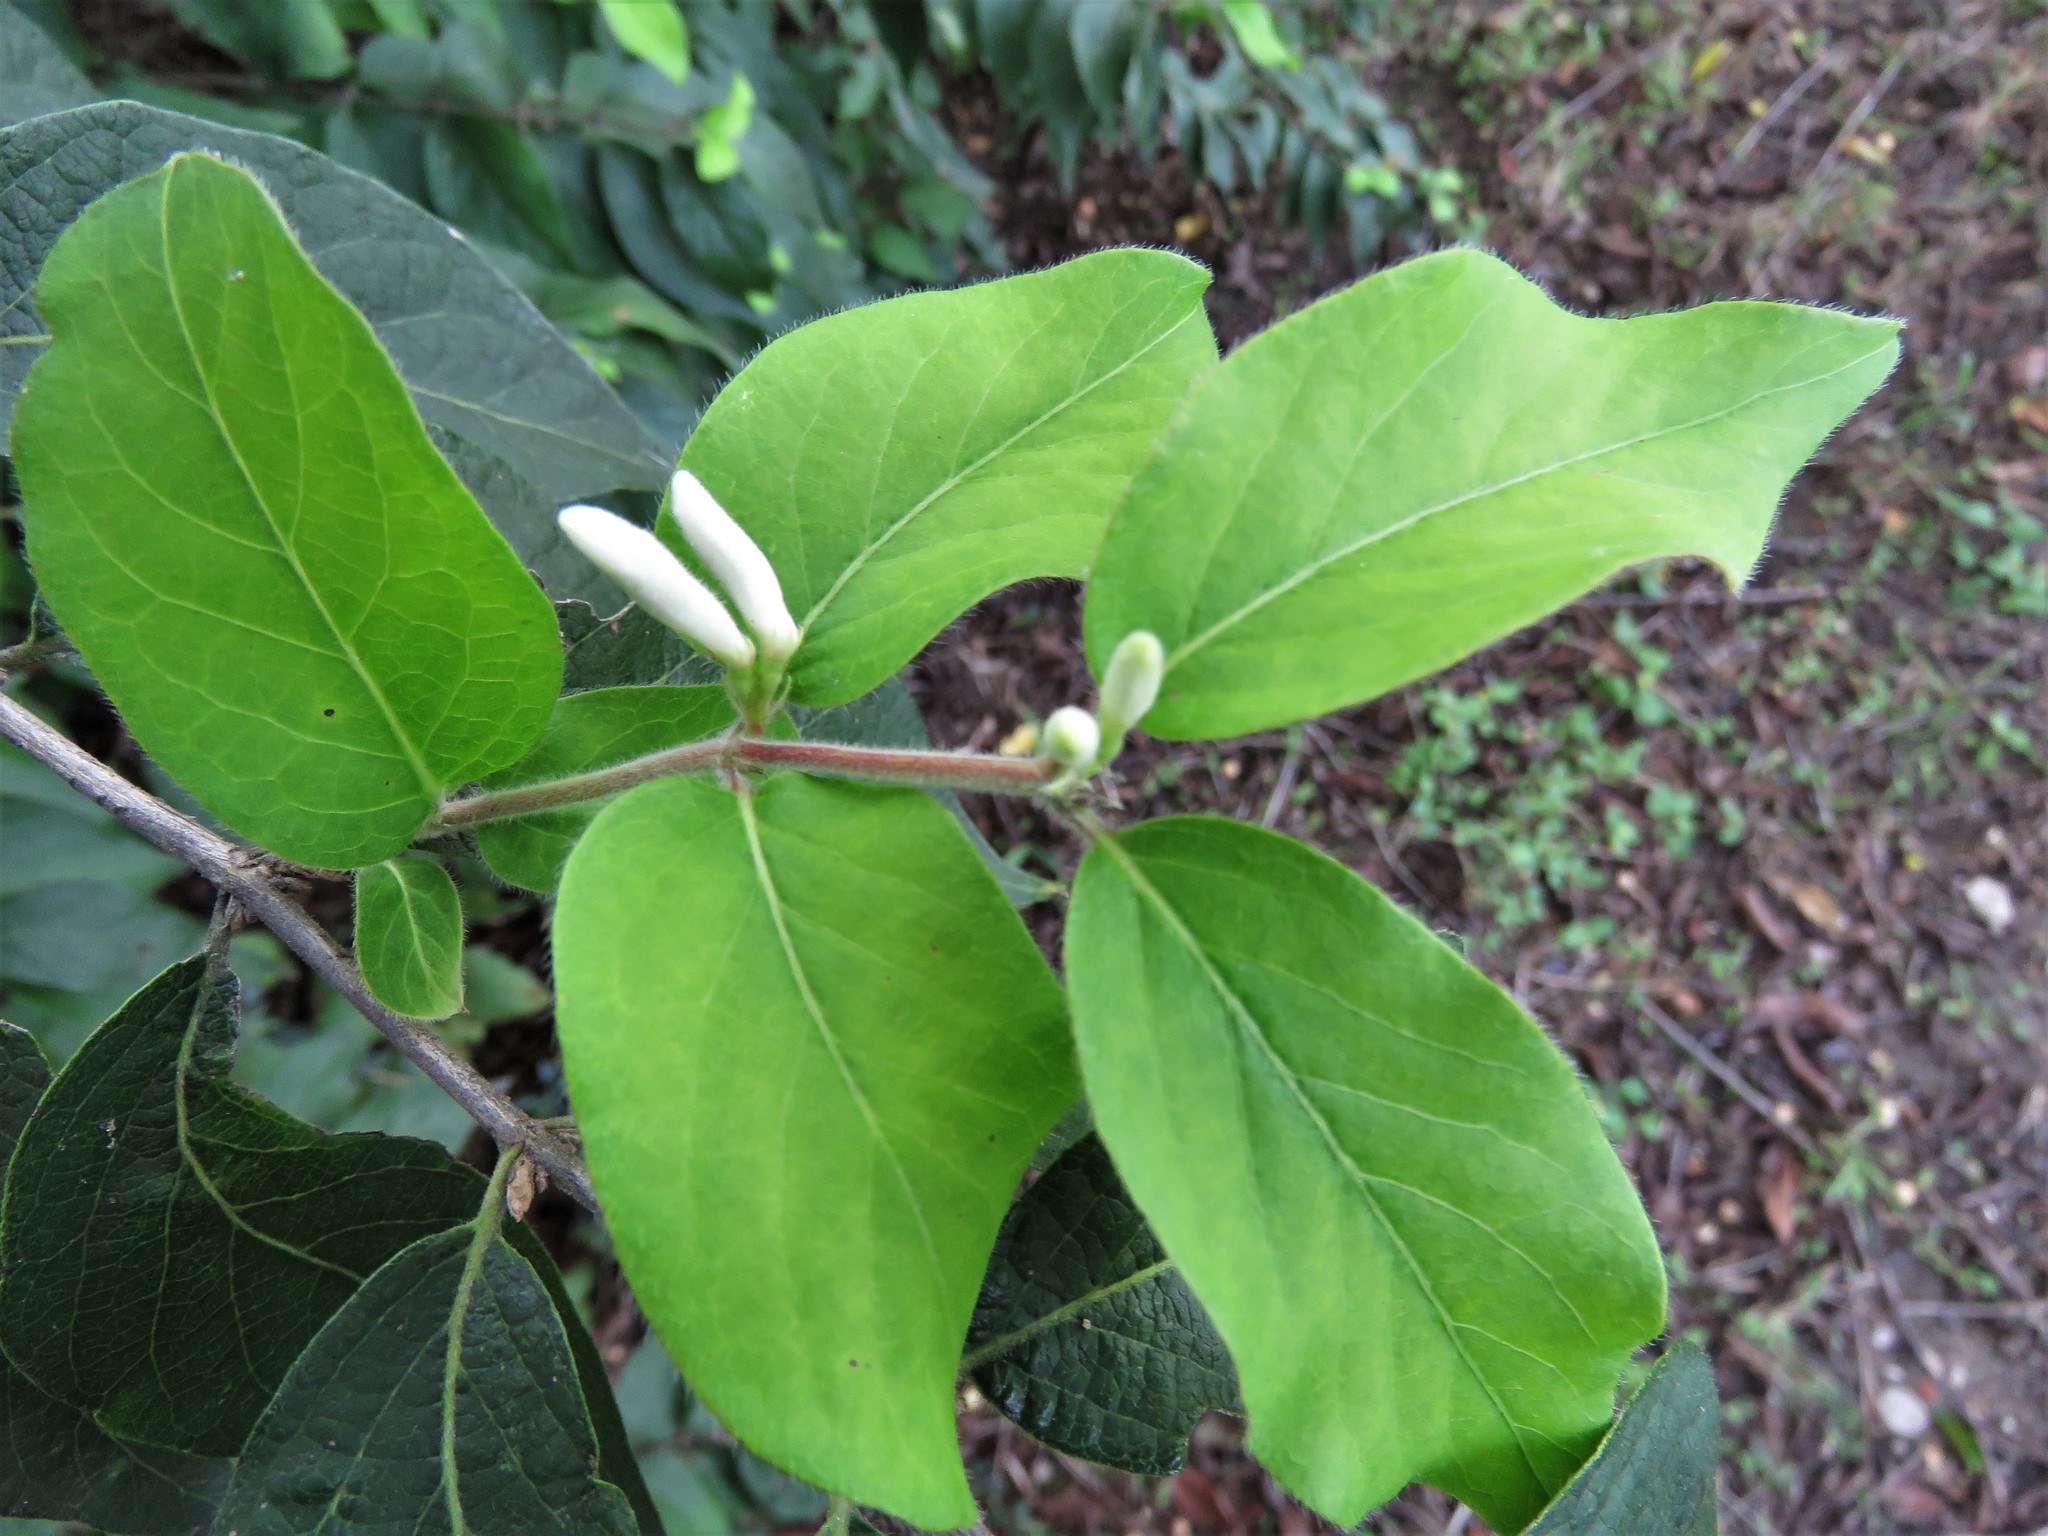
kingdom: Plantae
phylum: Tracheophyta
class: Magnoliopsida
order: Dipsacales
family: Caprifoliaceae
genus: Lonicera
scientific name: Lonicera maackii
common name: Amur honeysuckle
